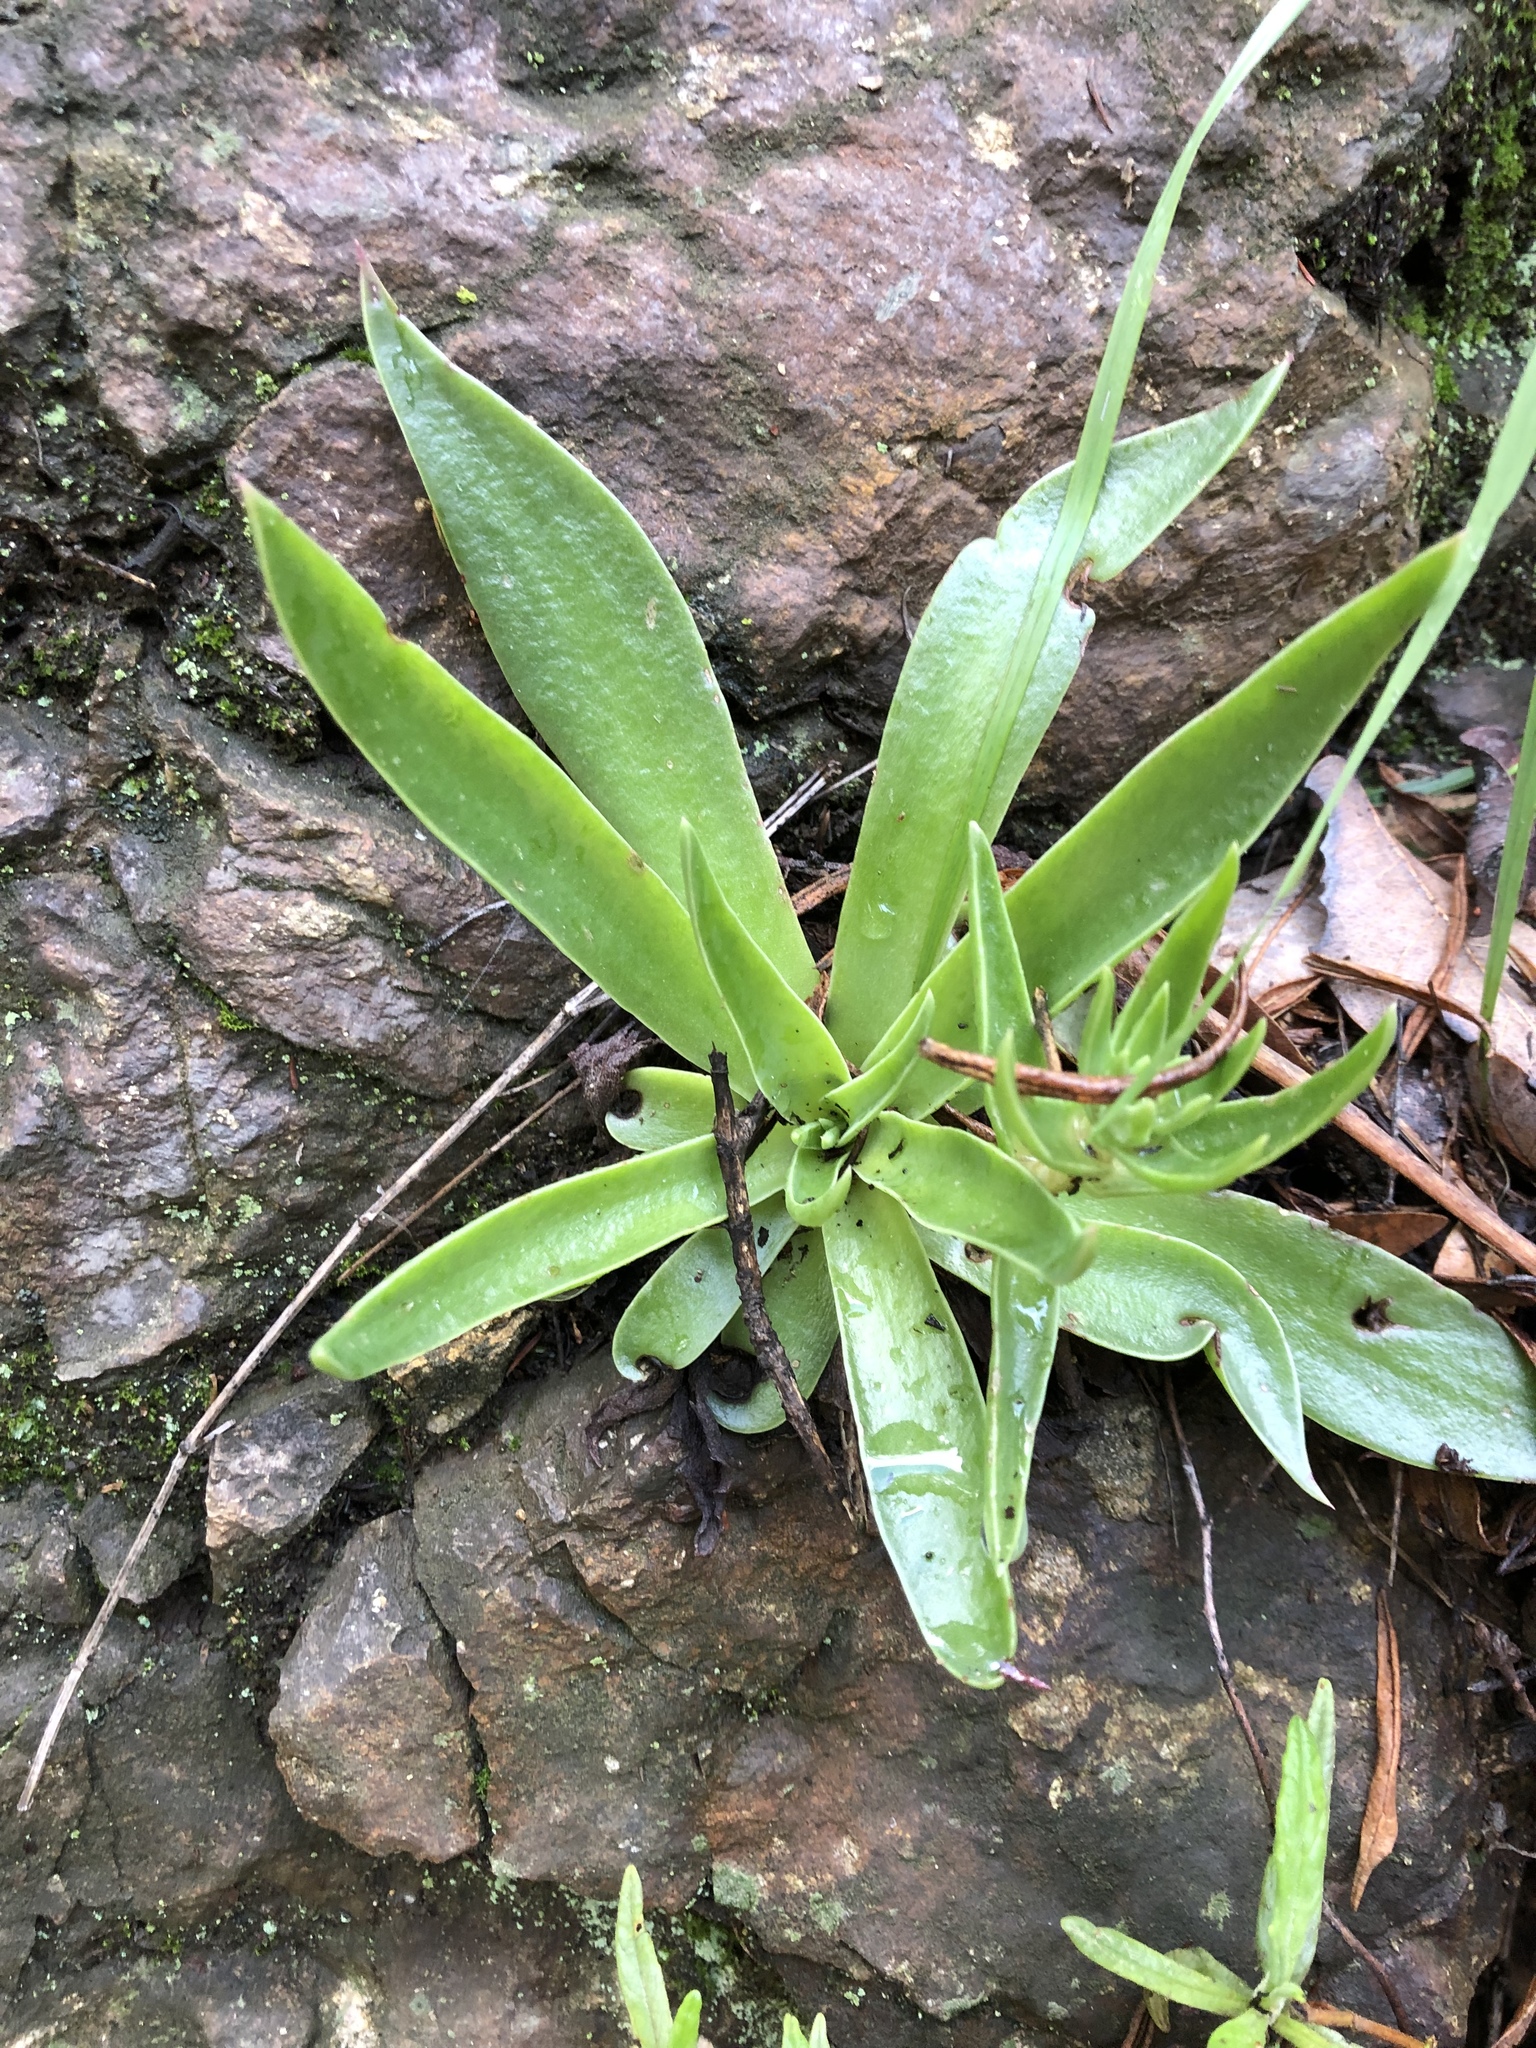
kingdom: Plantae
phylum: Tracheophyta
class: Magnoliopsida
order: Saxifragales
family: Crassulaceae
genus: Dudleya
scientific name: Dudleya lanceolata
